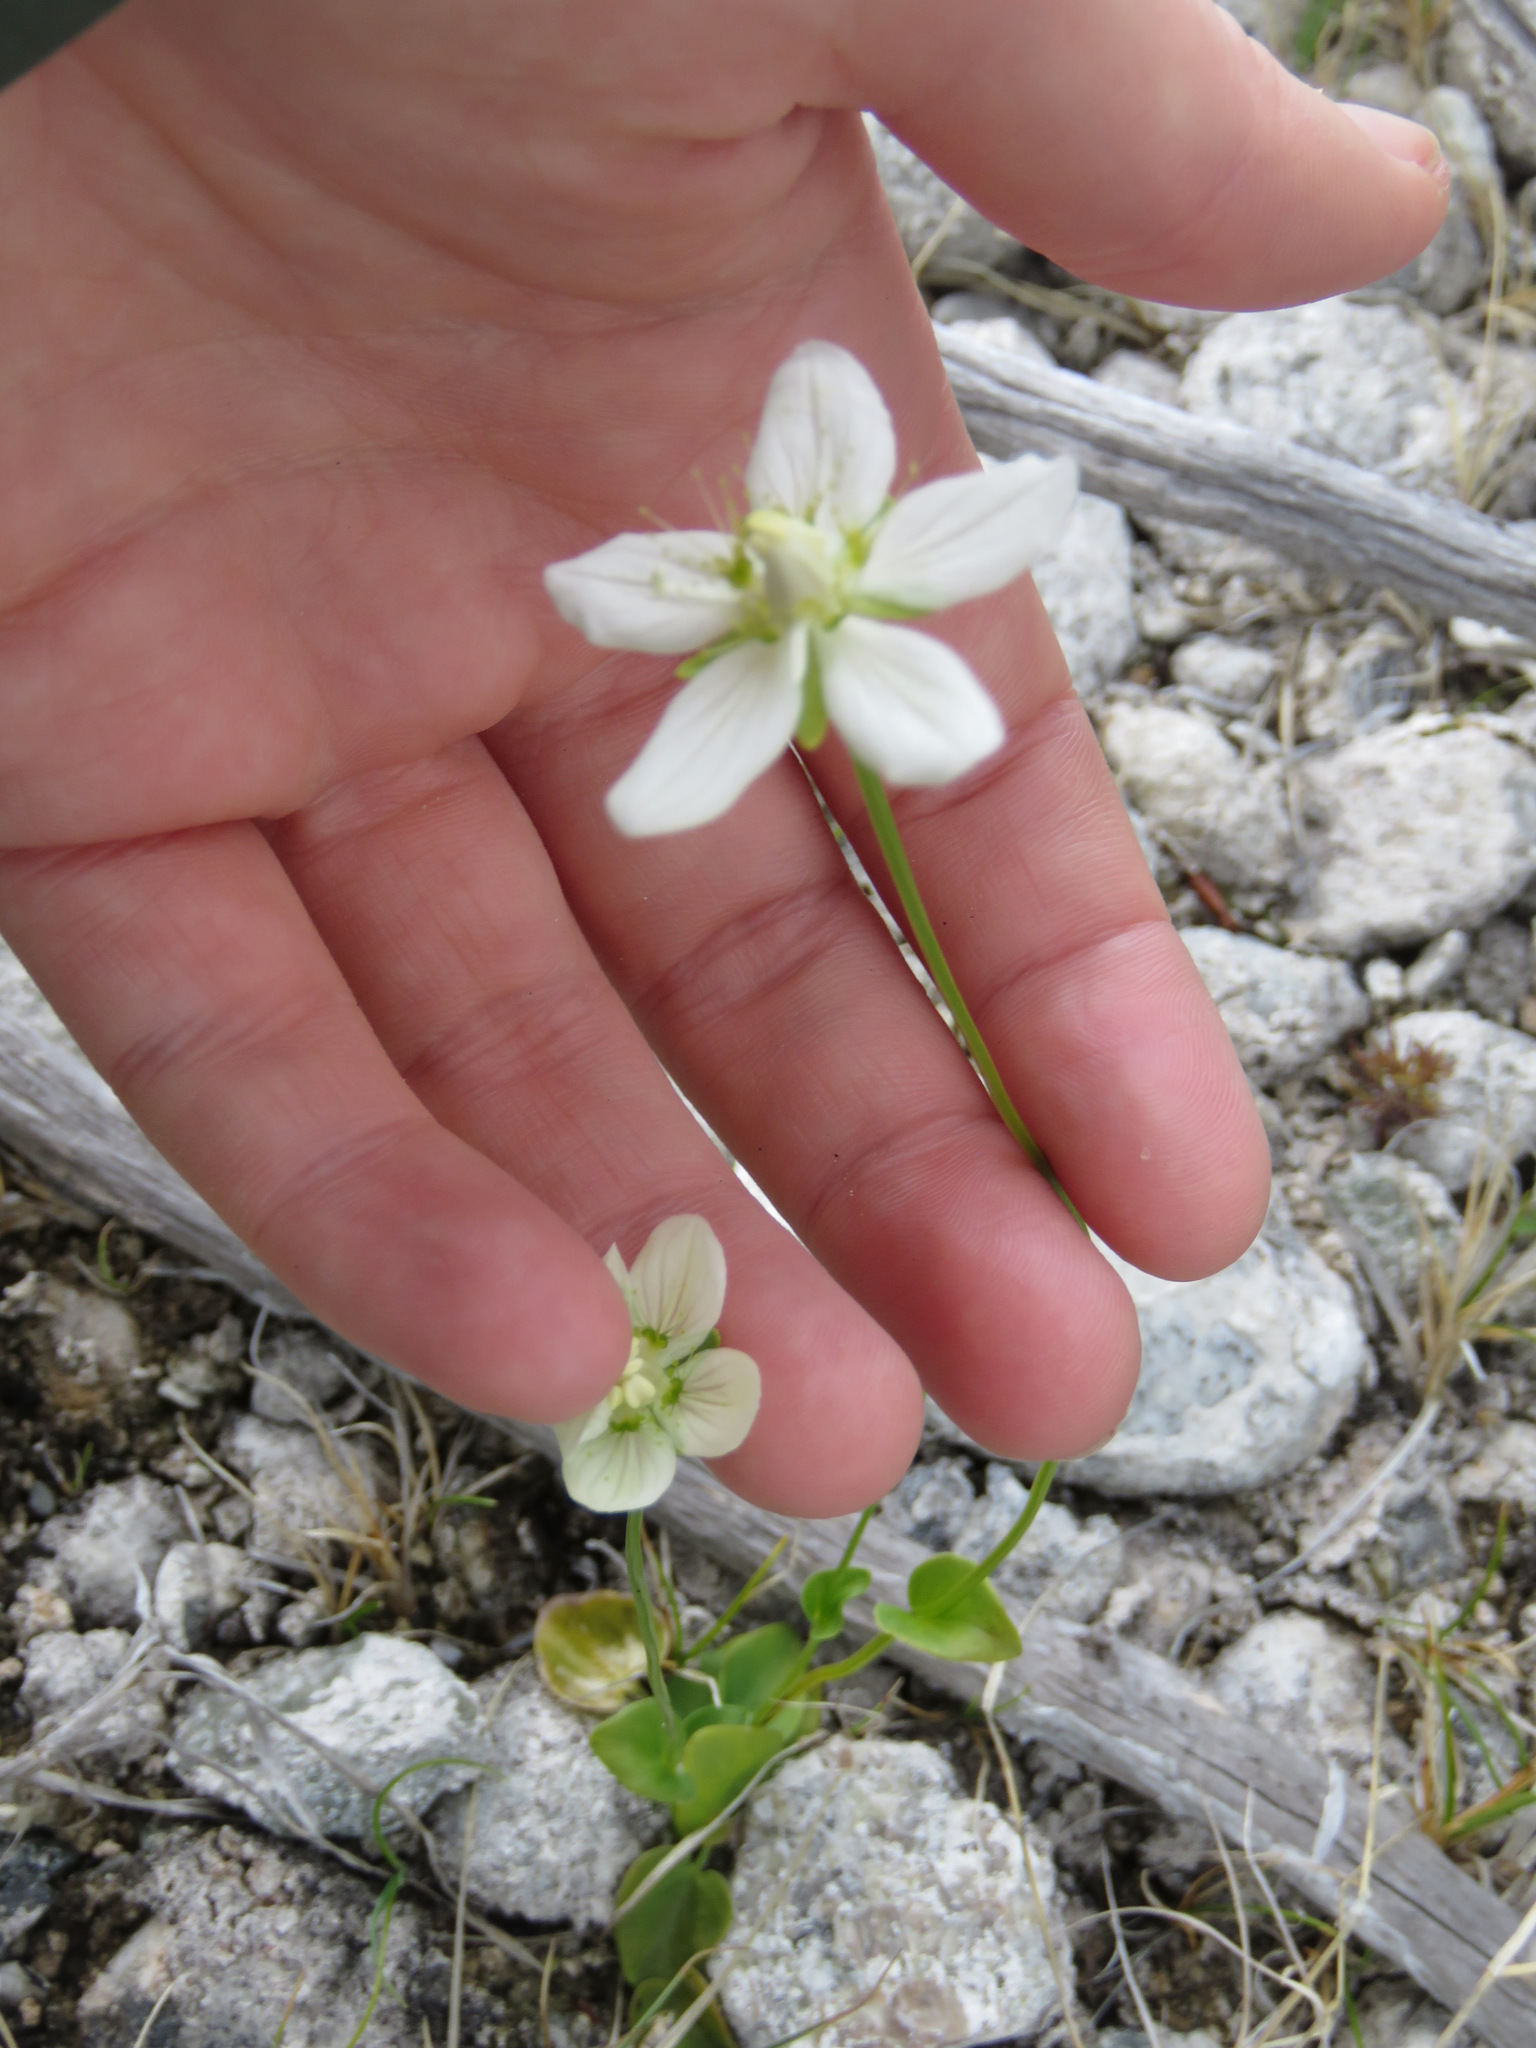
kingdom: Plantae
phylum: Tracheophyta
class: Magnoliopsida
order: Celastrales
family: Parnassiaceae
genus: Parnassia
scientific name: Parnassia palustris
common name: Grass-of-parnassus
